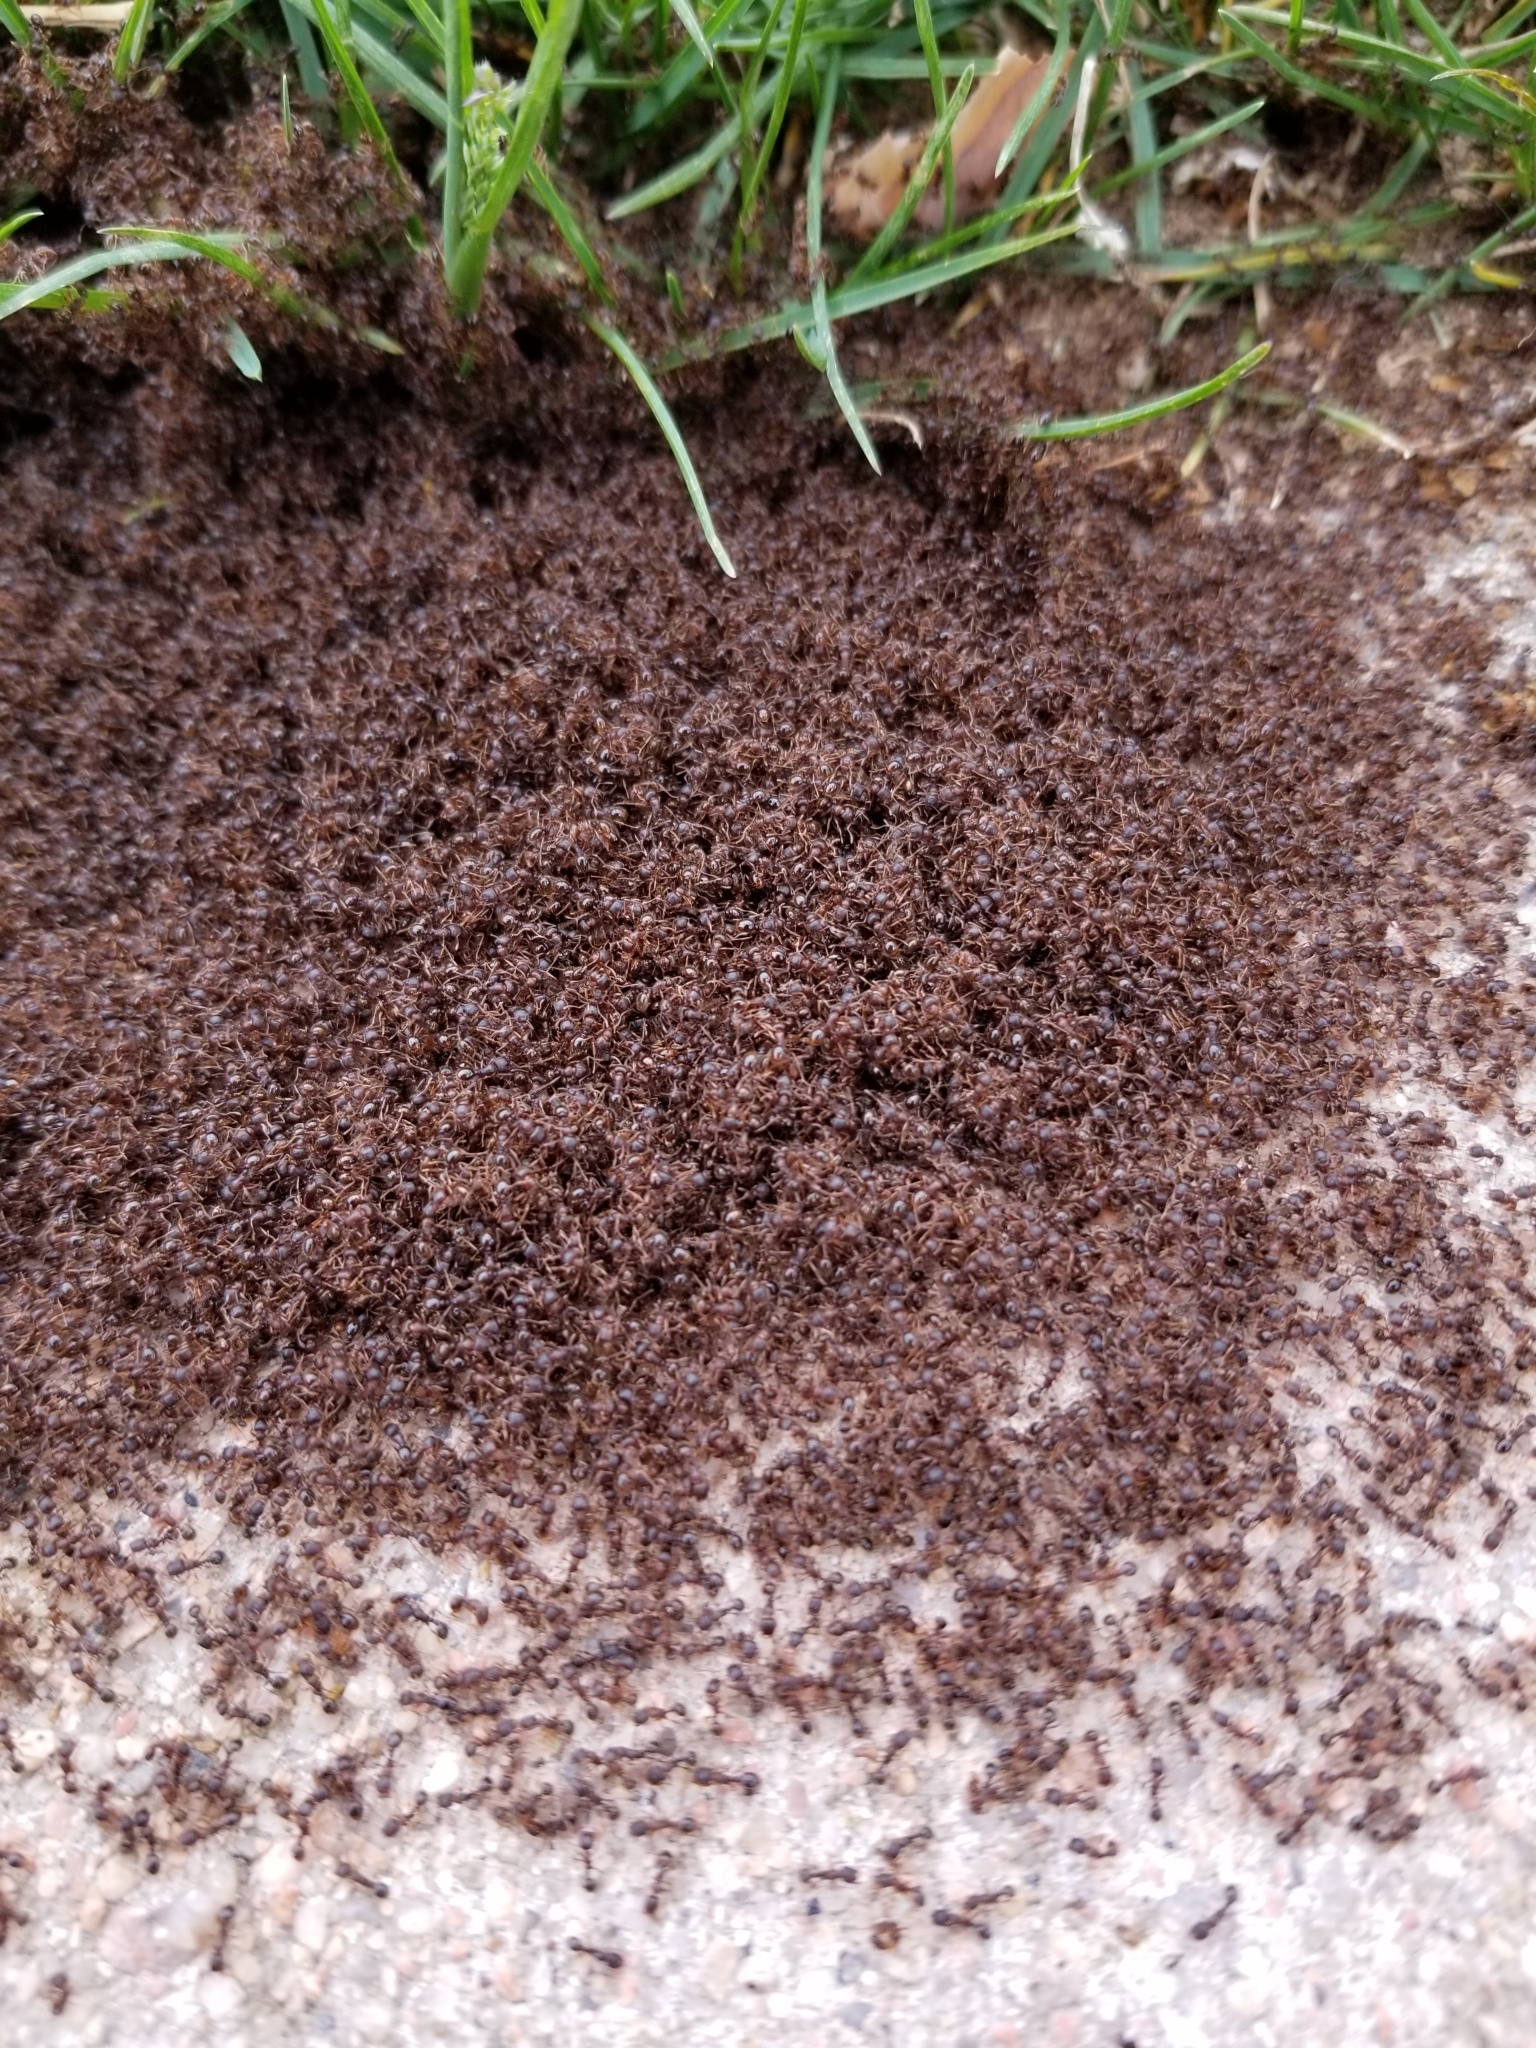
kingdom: Animalia
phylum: Arthropoda
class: Insecta
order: Hymenoptera
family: Formicidae
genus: Tetramorium
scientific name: Tetramorium immigrans
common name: Pavement ant
